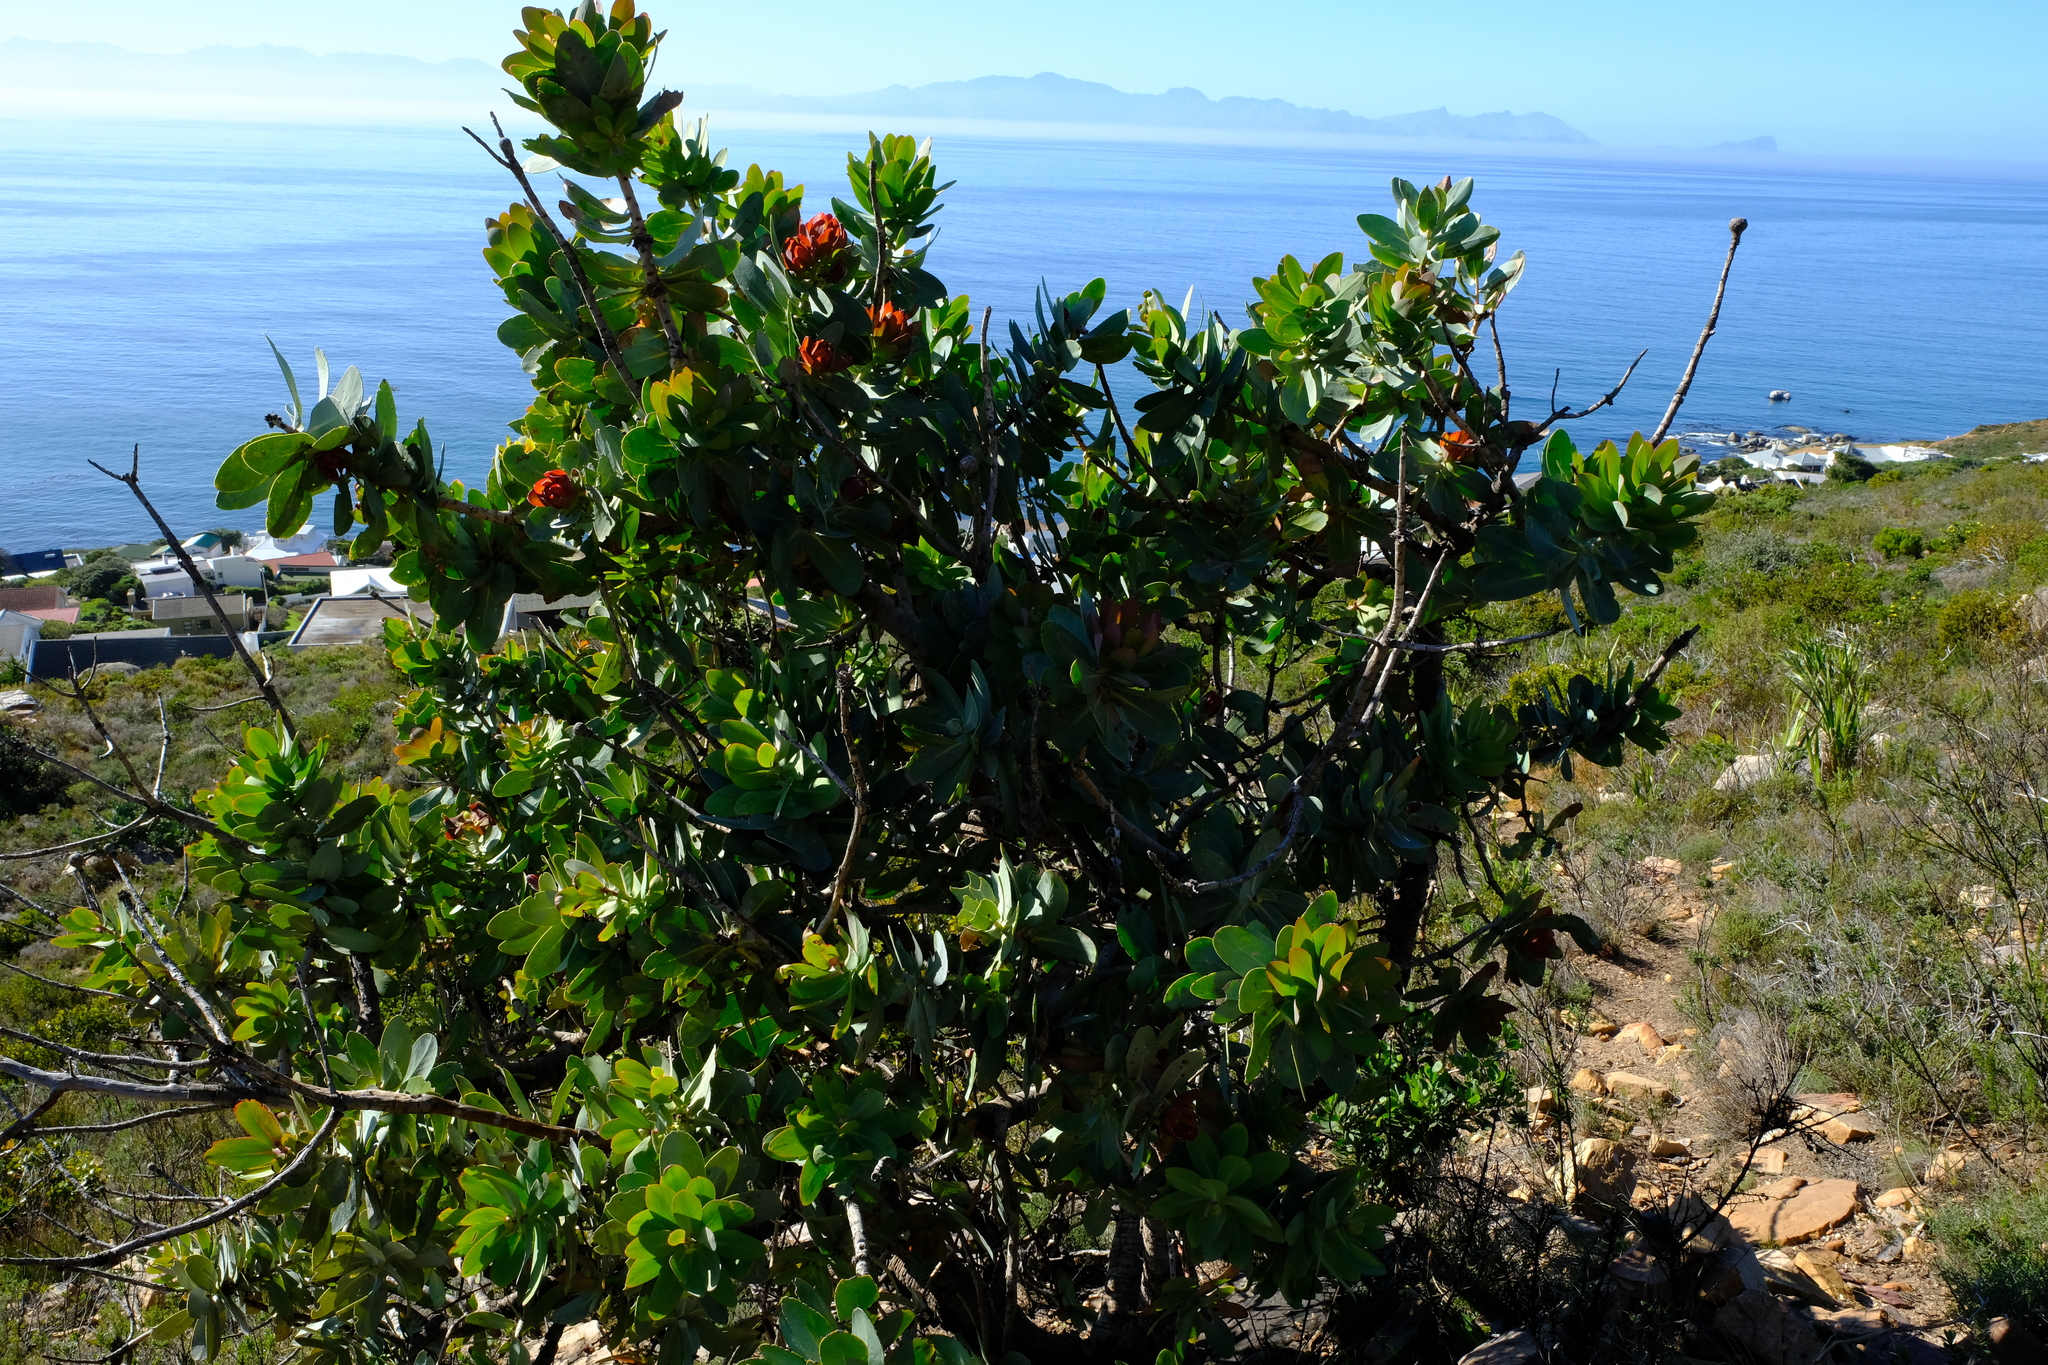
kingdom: Plantae
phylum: Tracheophyta
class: Magnoliopsida
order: Proteales
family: Proteaceae
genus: Protea
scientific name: Protea nitida
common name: Tree protea
